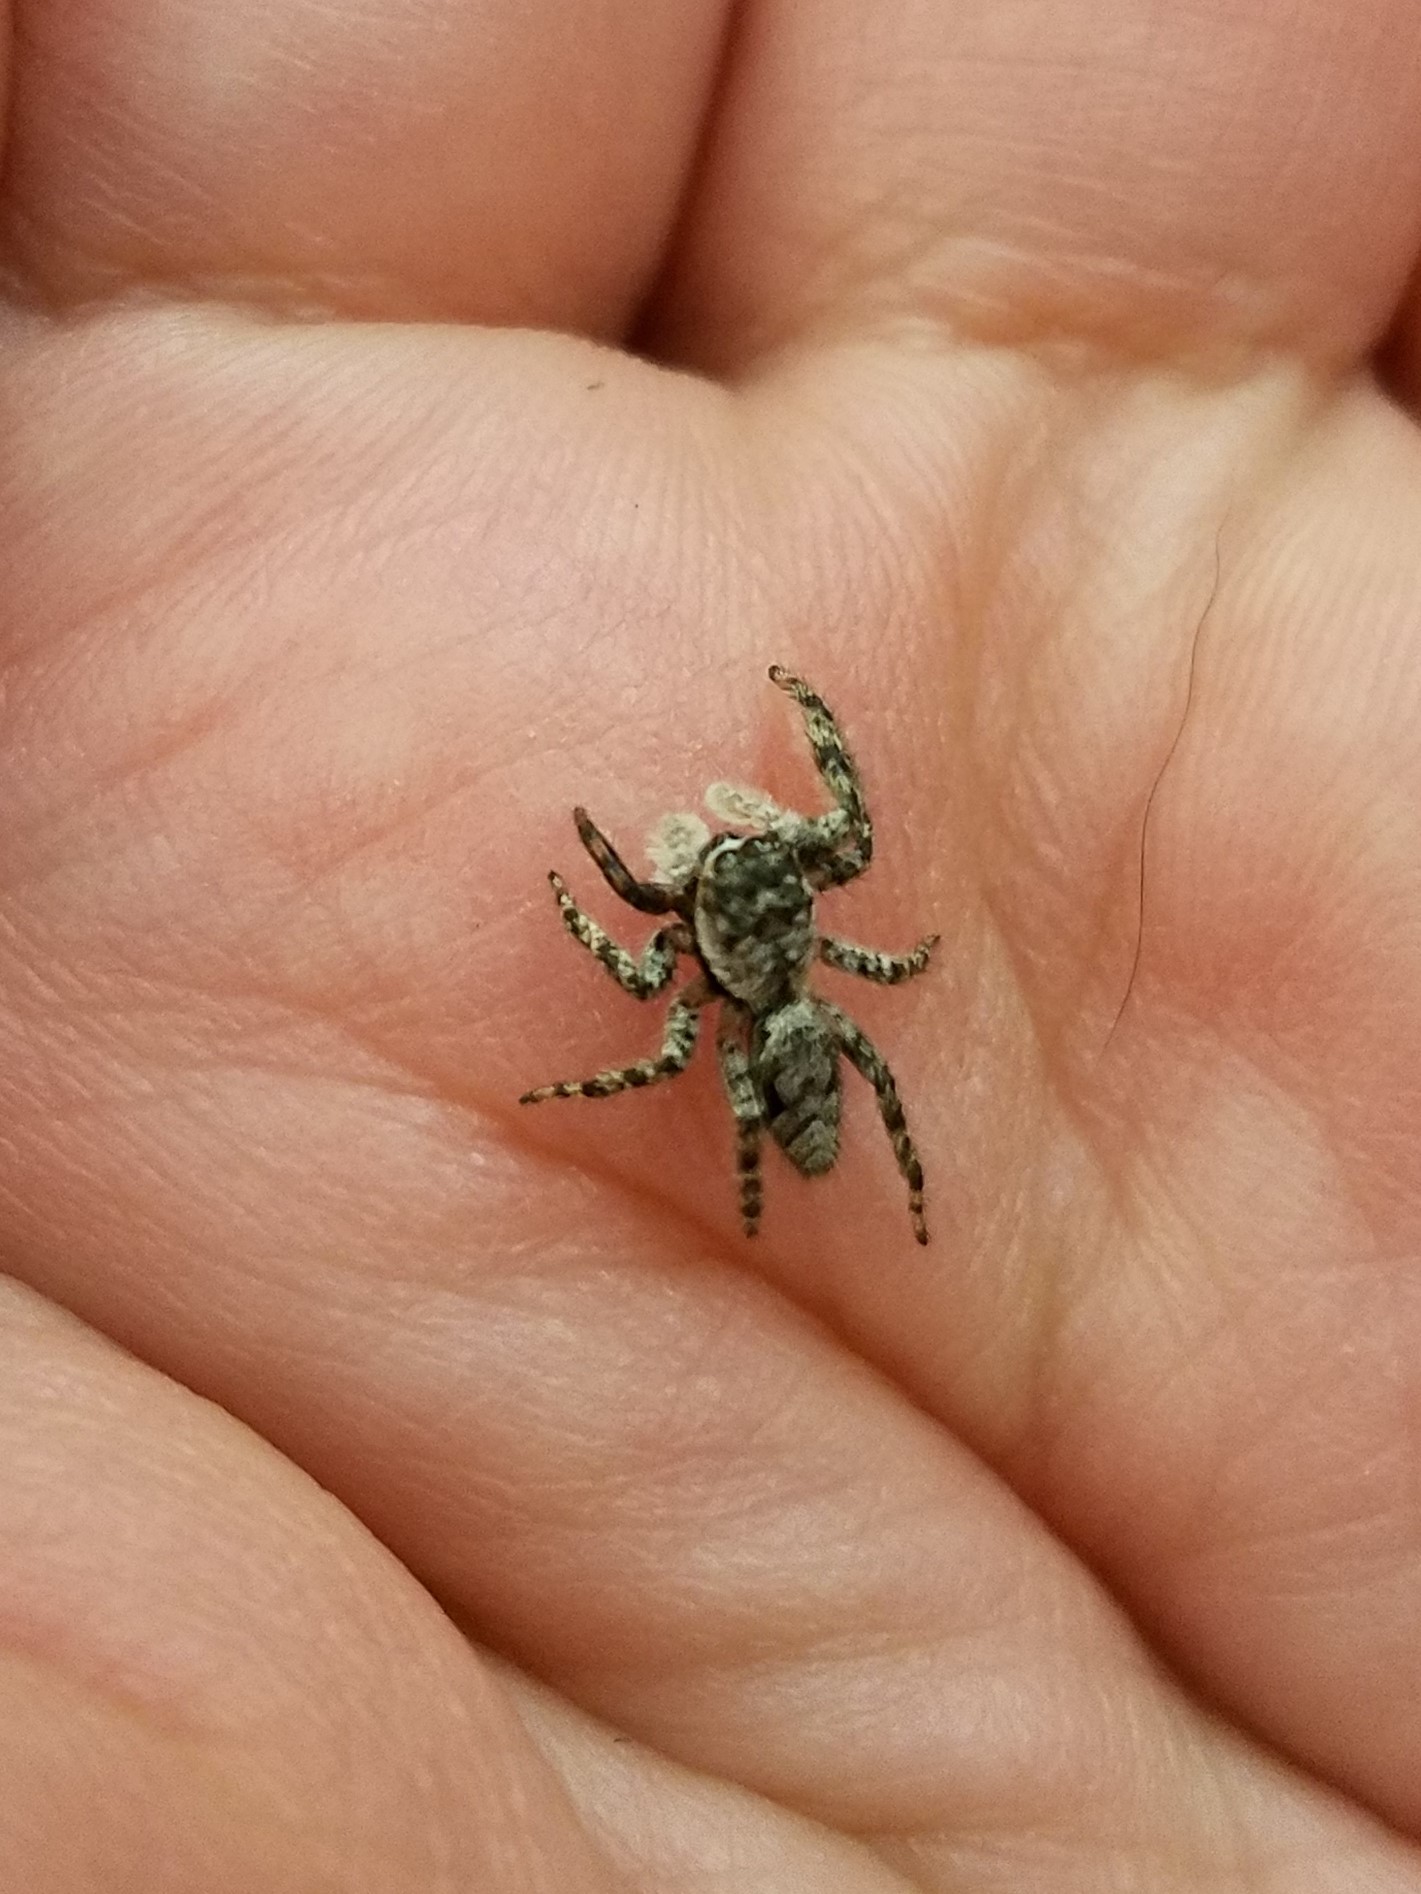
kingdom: Animalia
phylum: Arthropoda
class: Arachnida
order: Araneae
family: Salticidae
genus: Platycryptus
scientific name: Platycryptus undatus
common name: Tan jumping spider
